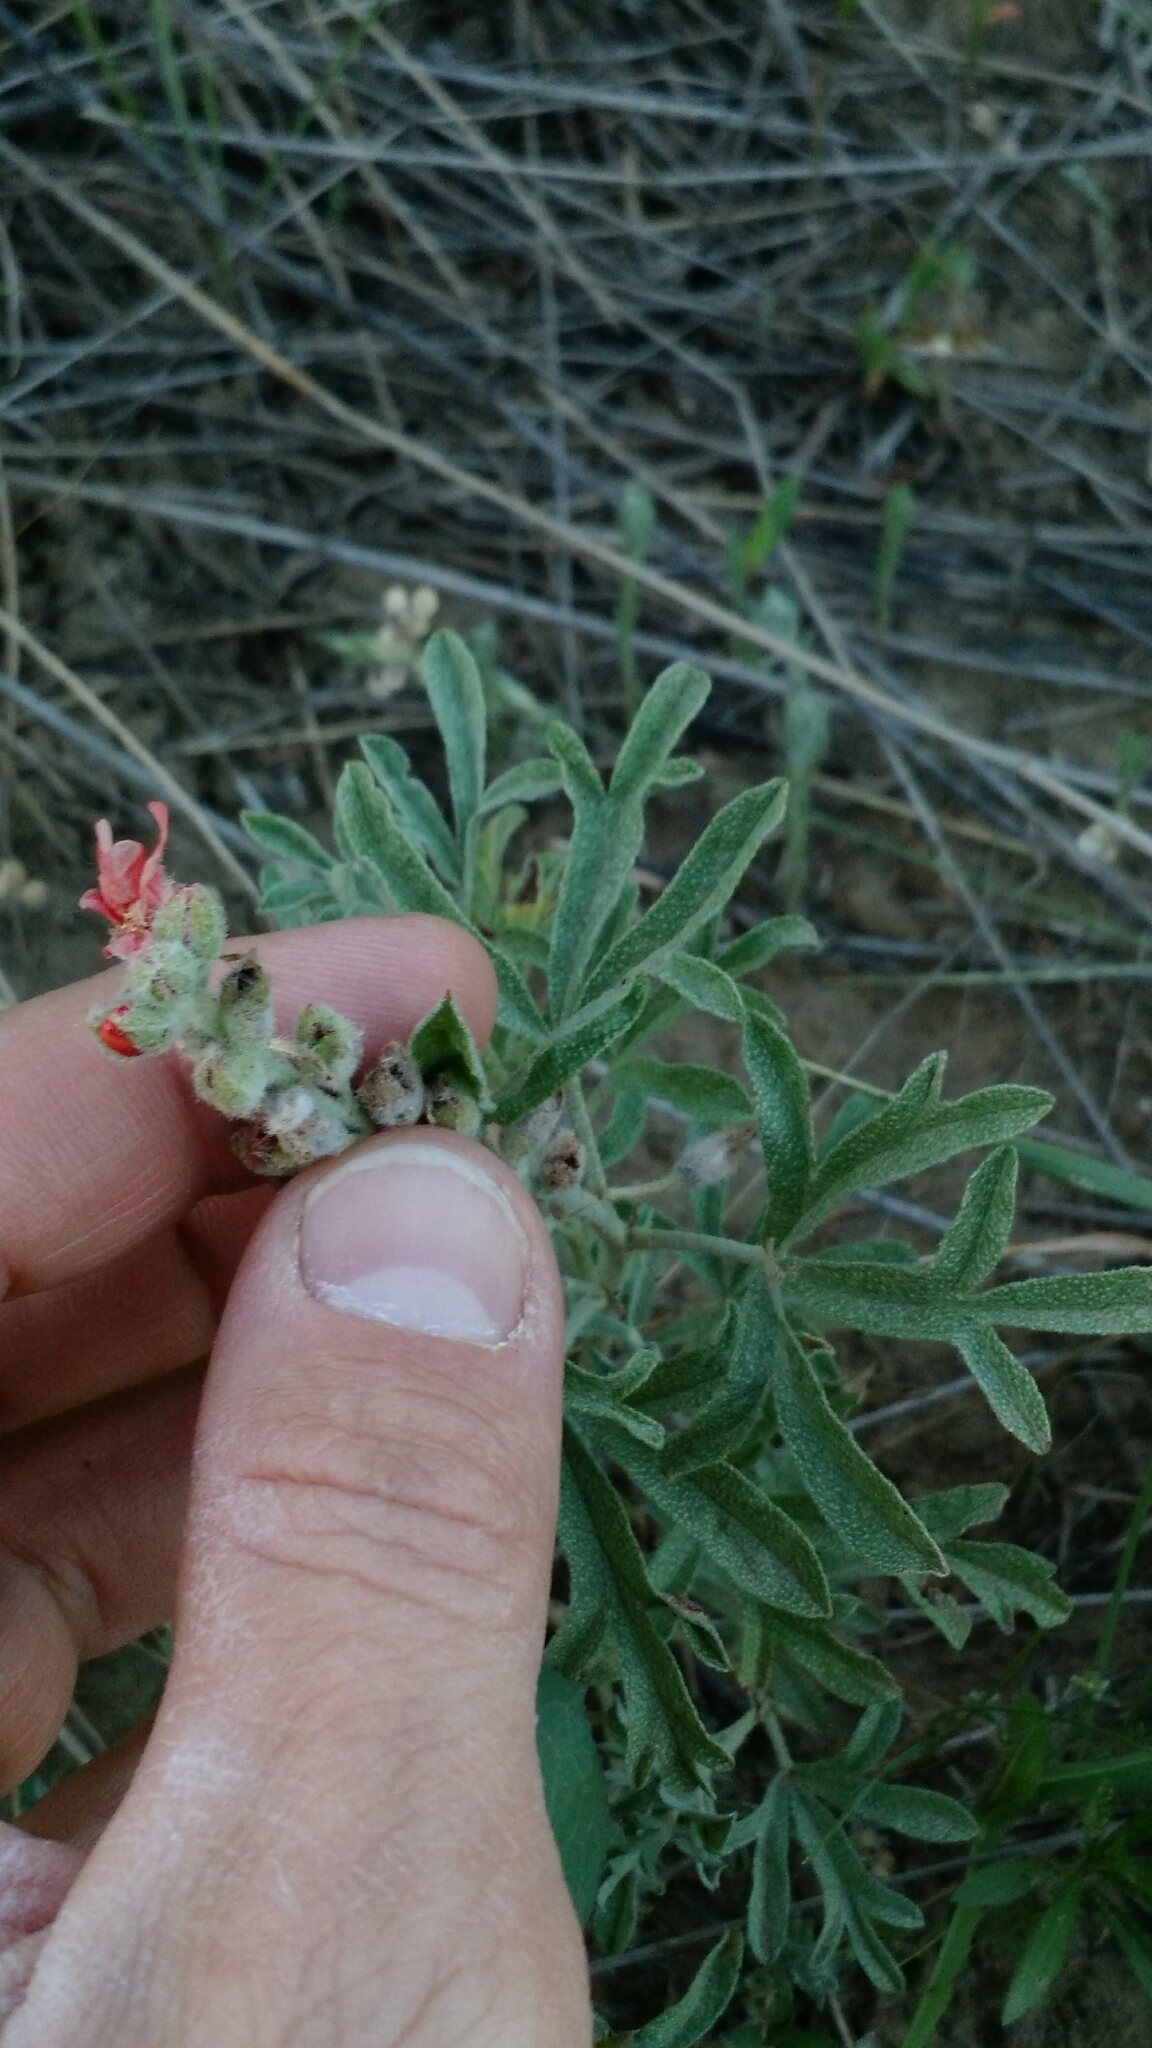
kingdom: Plantae
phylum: Tracheophyta
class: Magnoliopsida
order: Malvales
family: Malvaceae
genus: Sphaeralcea
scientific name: Sphaeralcea coccinea
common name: Moss-rose
